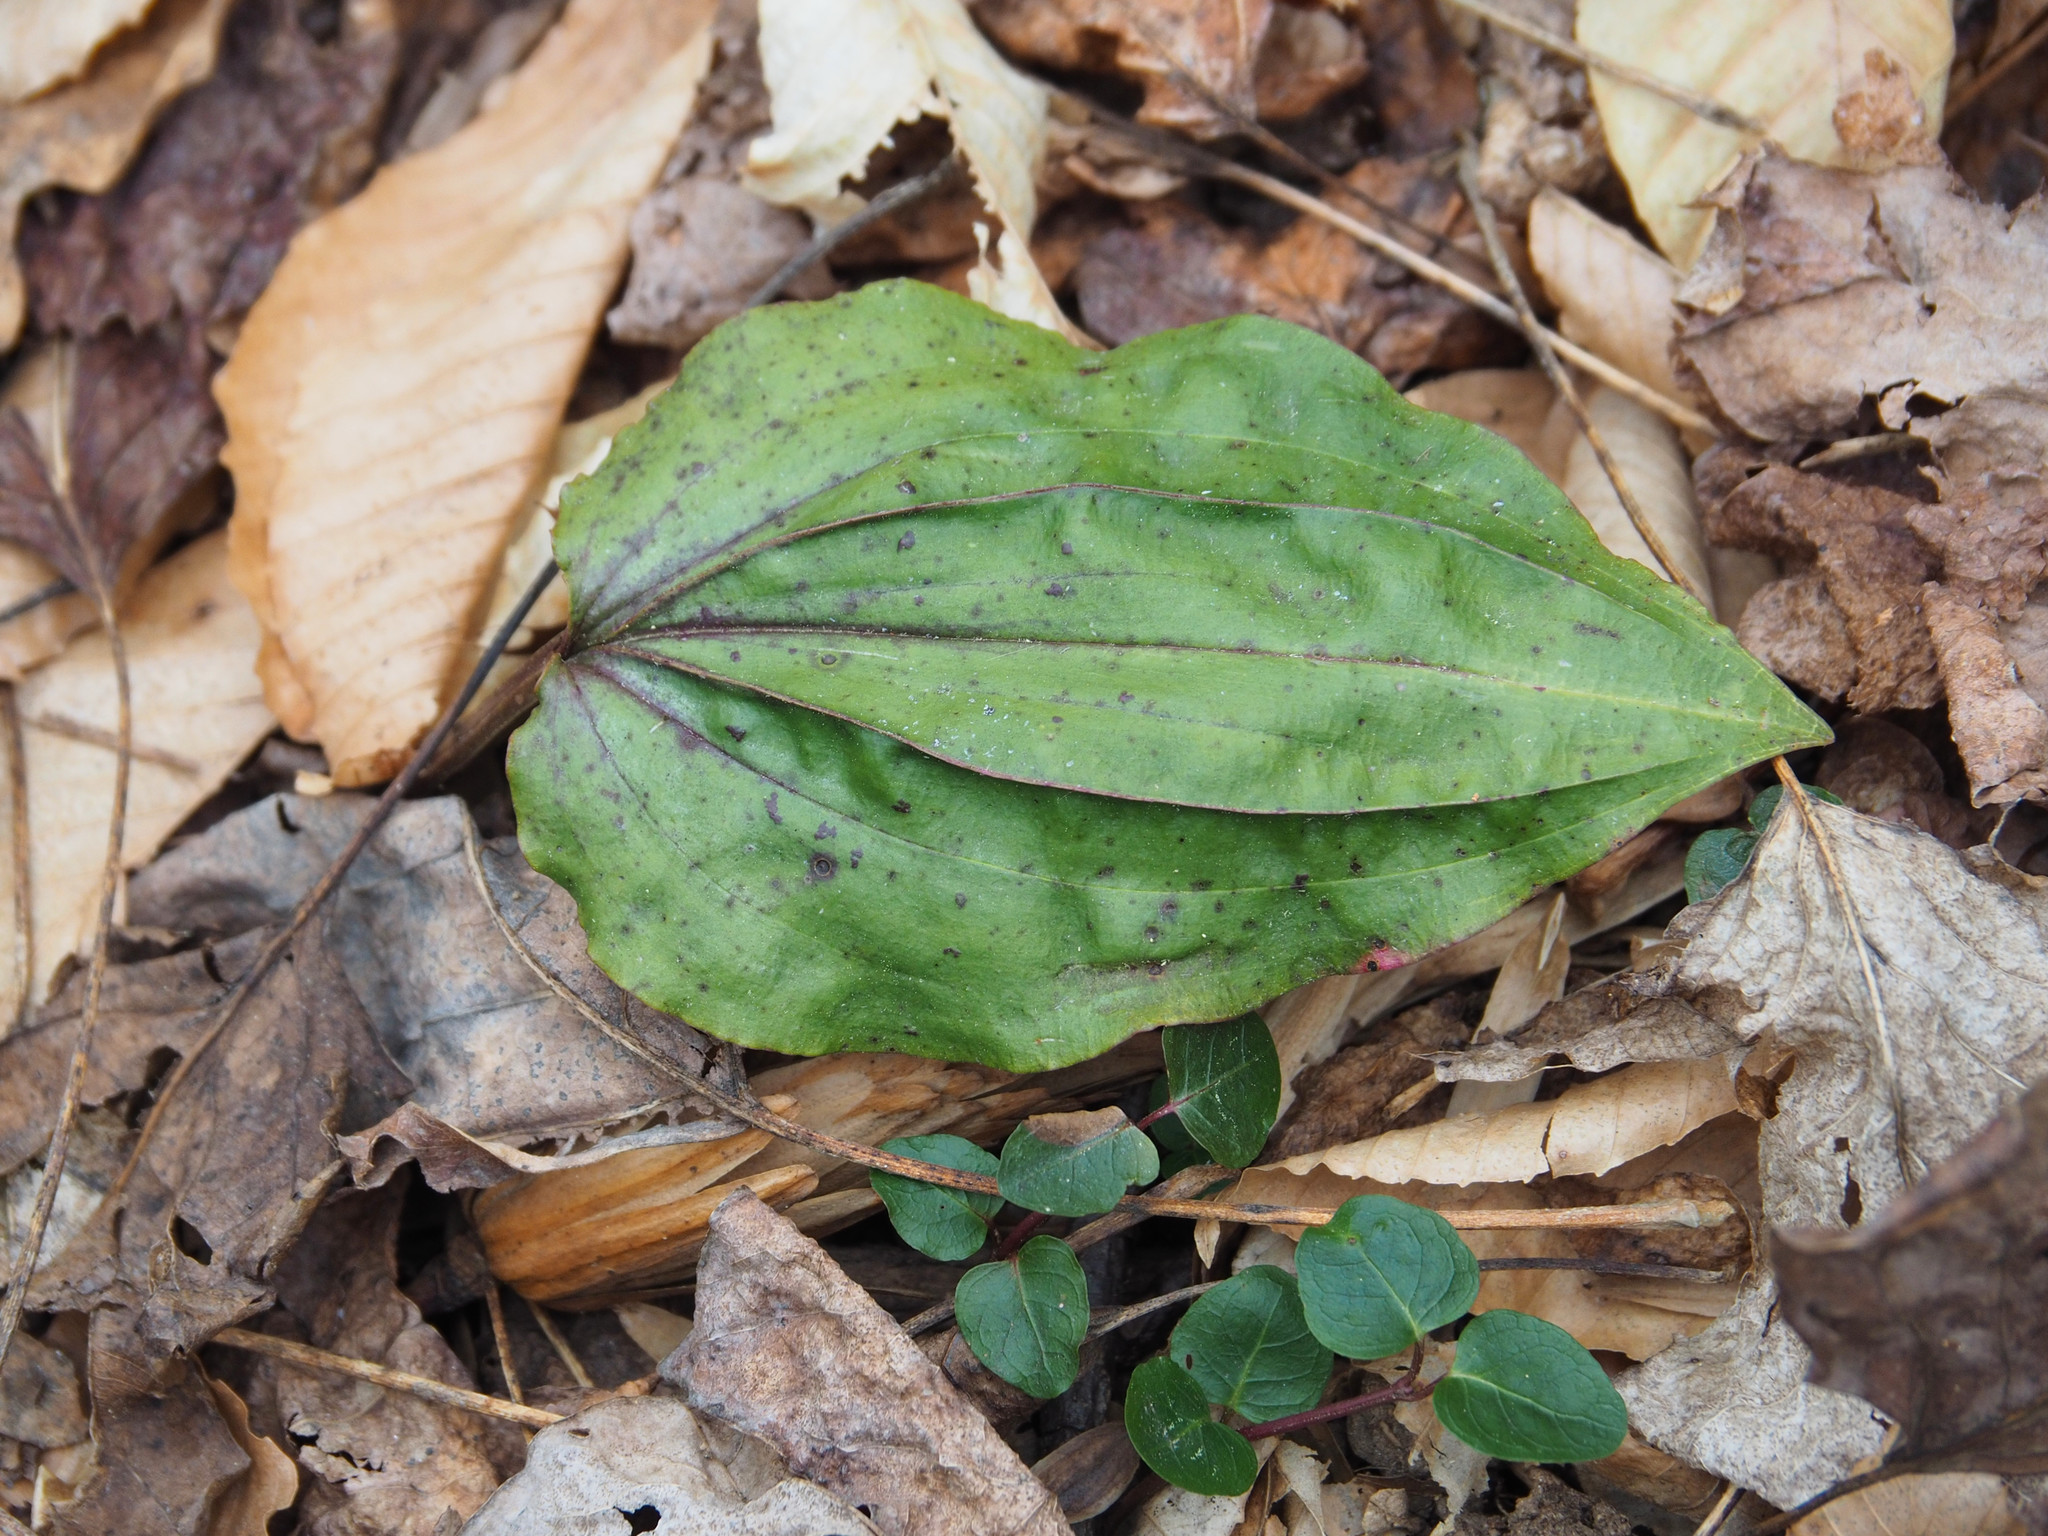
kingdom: Plantae
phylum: Tracheophyta
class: Liliopsida
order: Asparagales
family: Orchidaceae
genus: Tipularia
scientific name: Tipularia discolor
